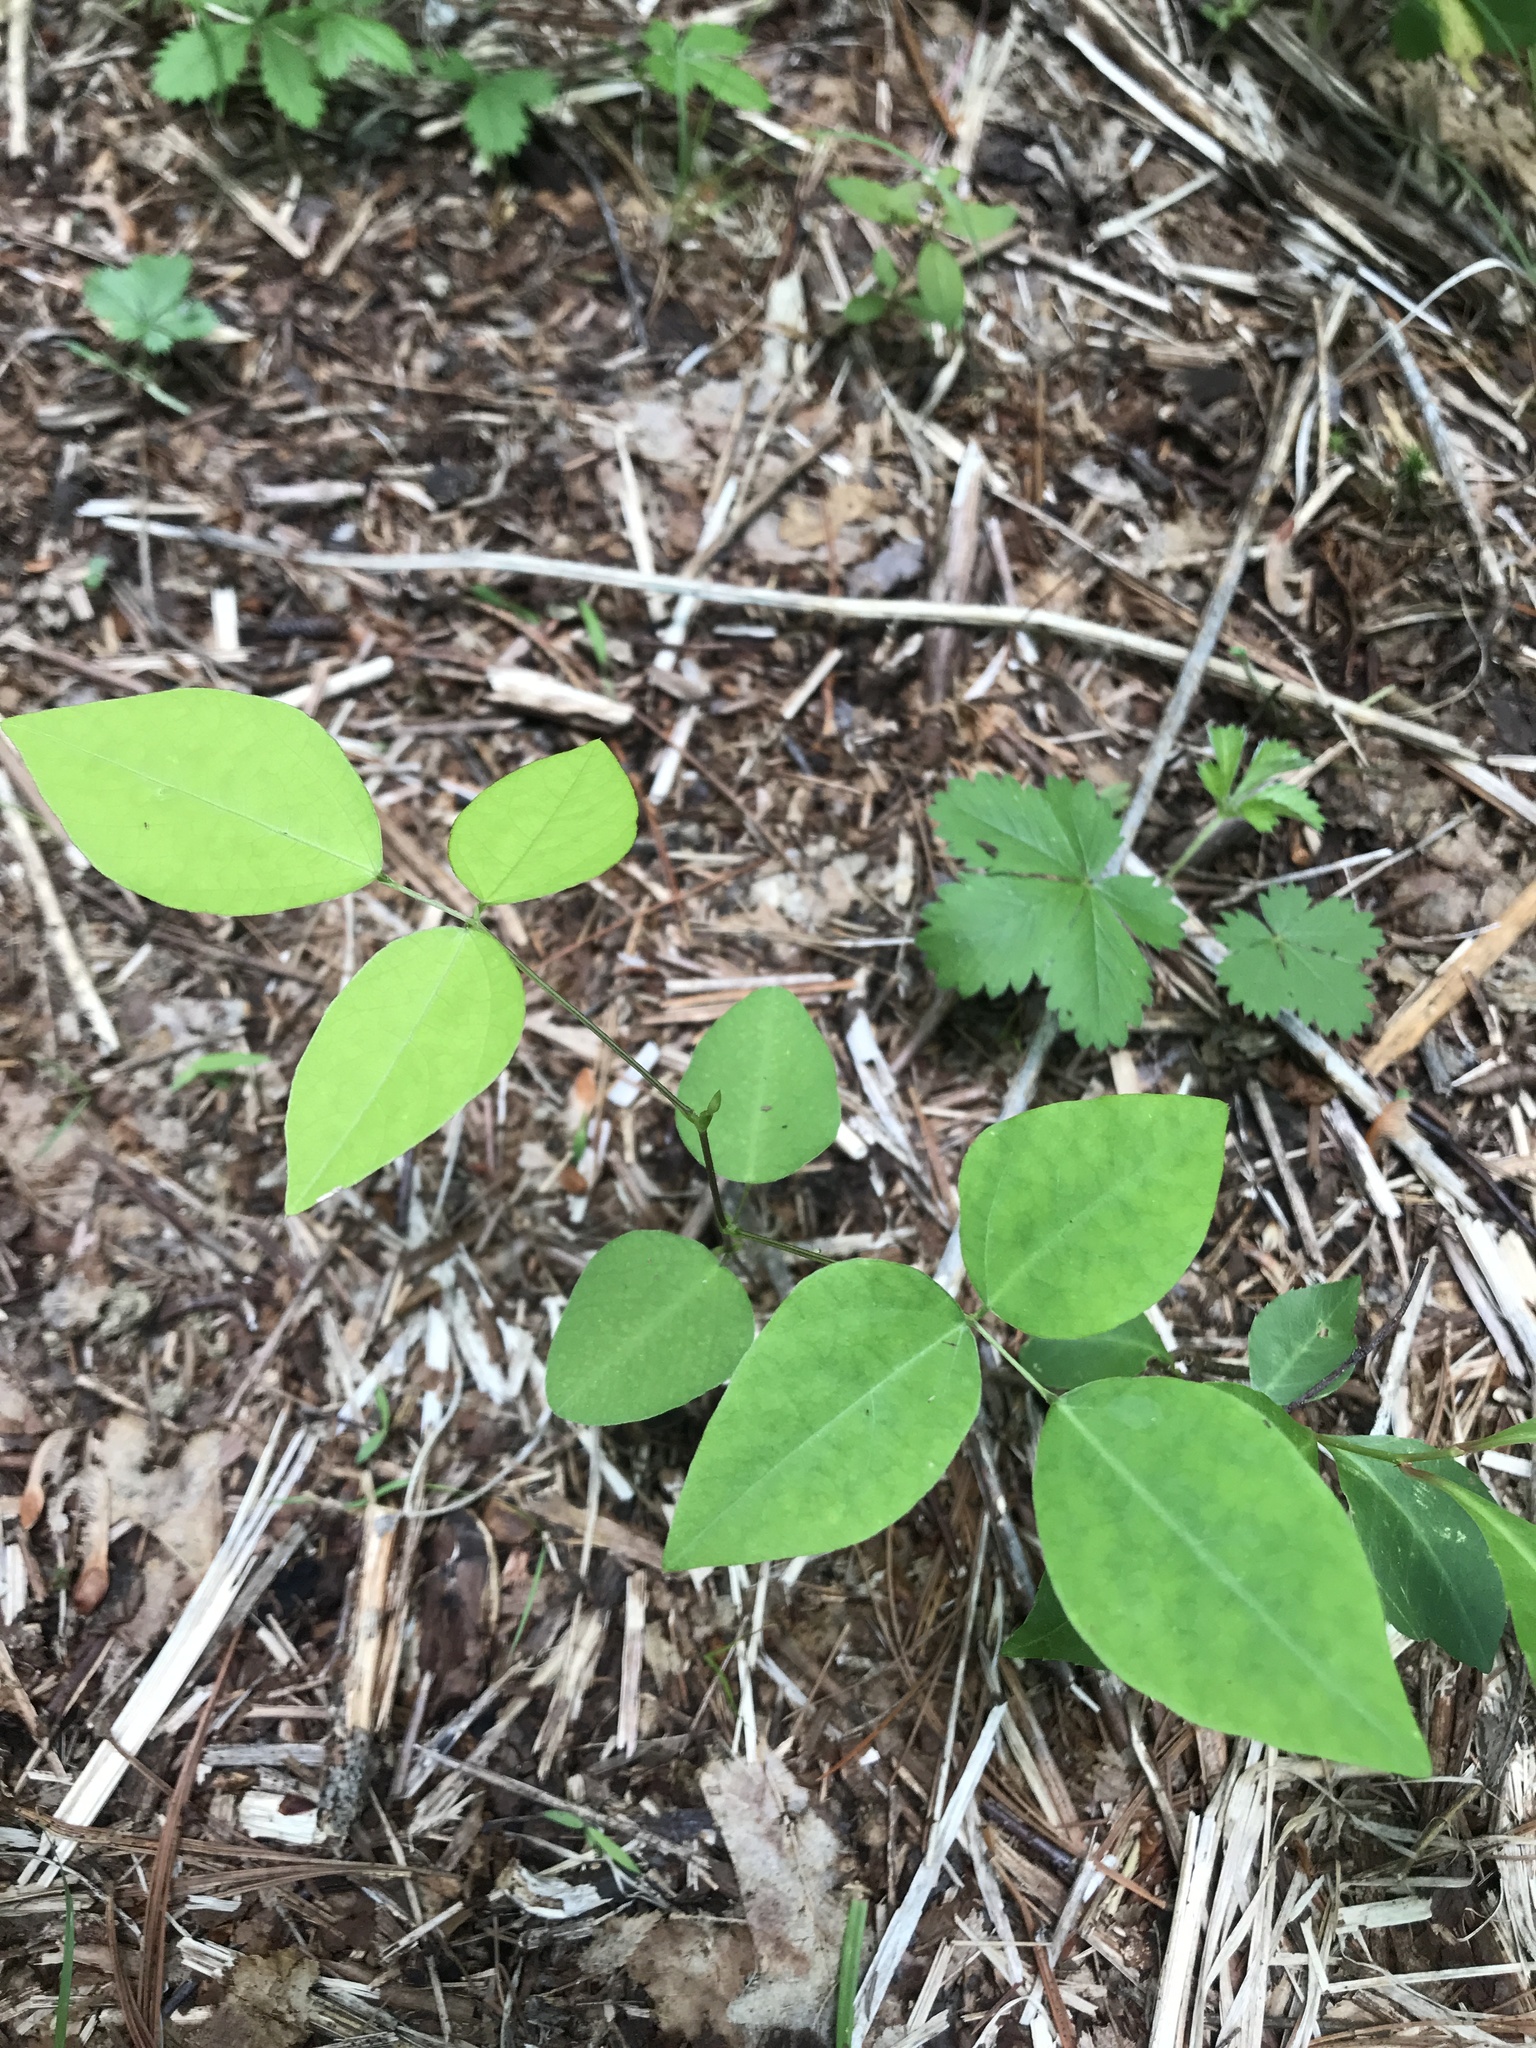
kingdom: Plantae
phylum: Tracheophyta
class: Magnoliopsida
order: Fabales
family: Fabaceae
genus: Amphicarpaea
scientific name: Amphicarpaea bracteata
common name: American hog peanut
